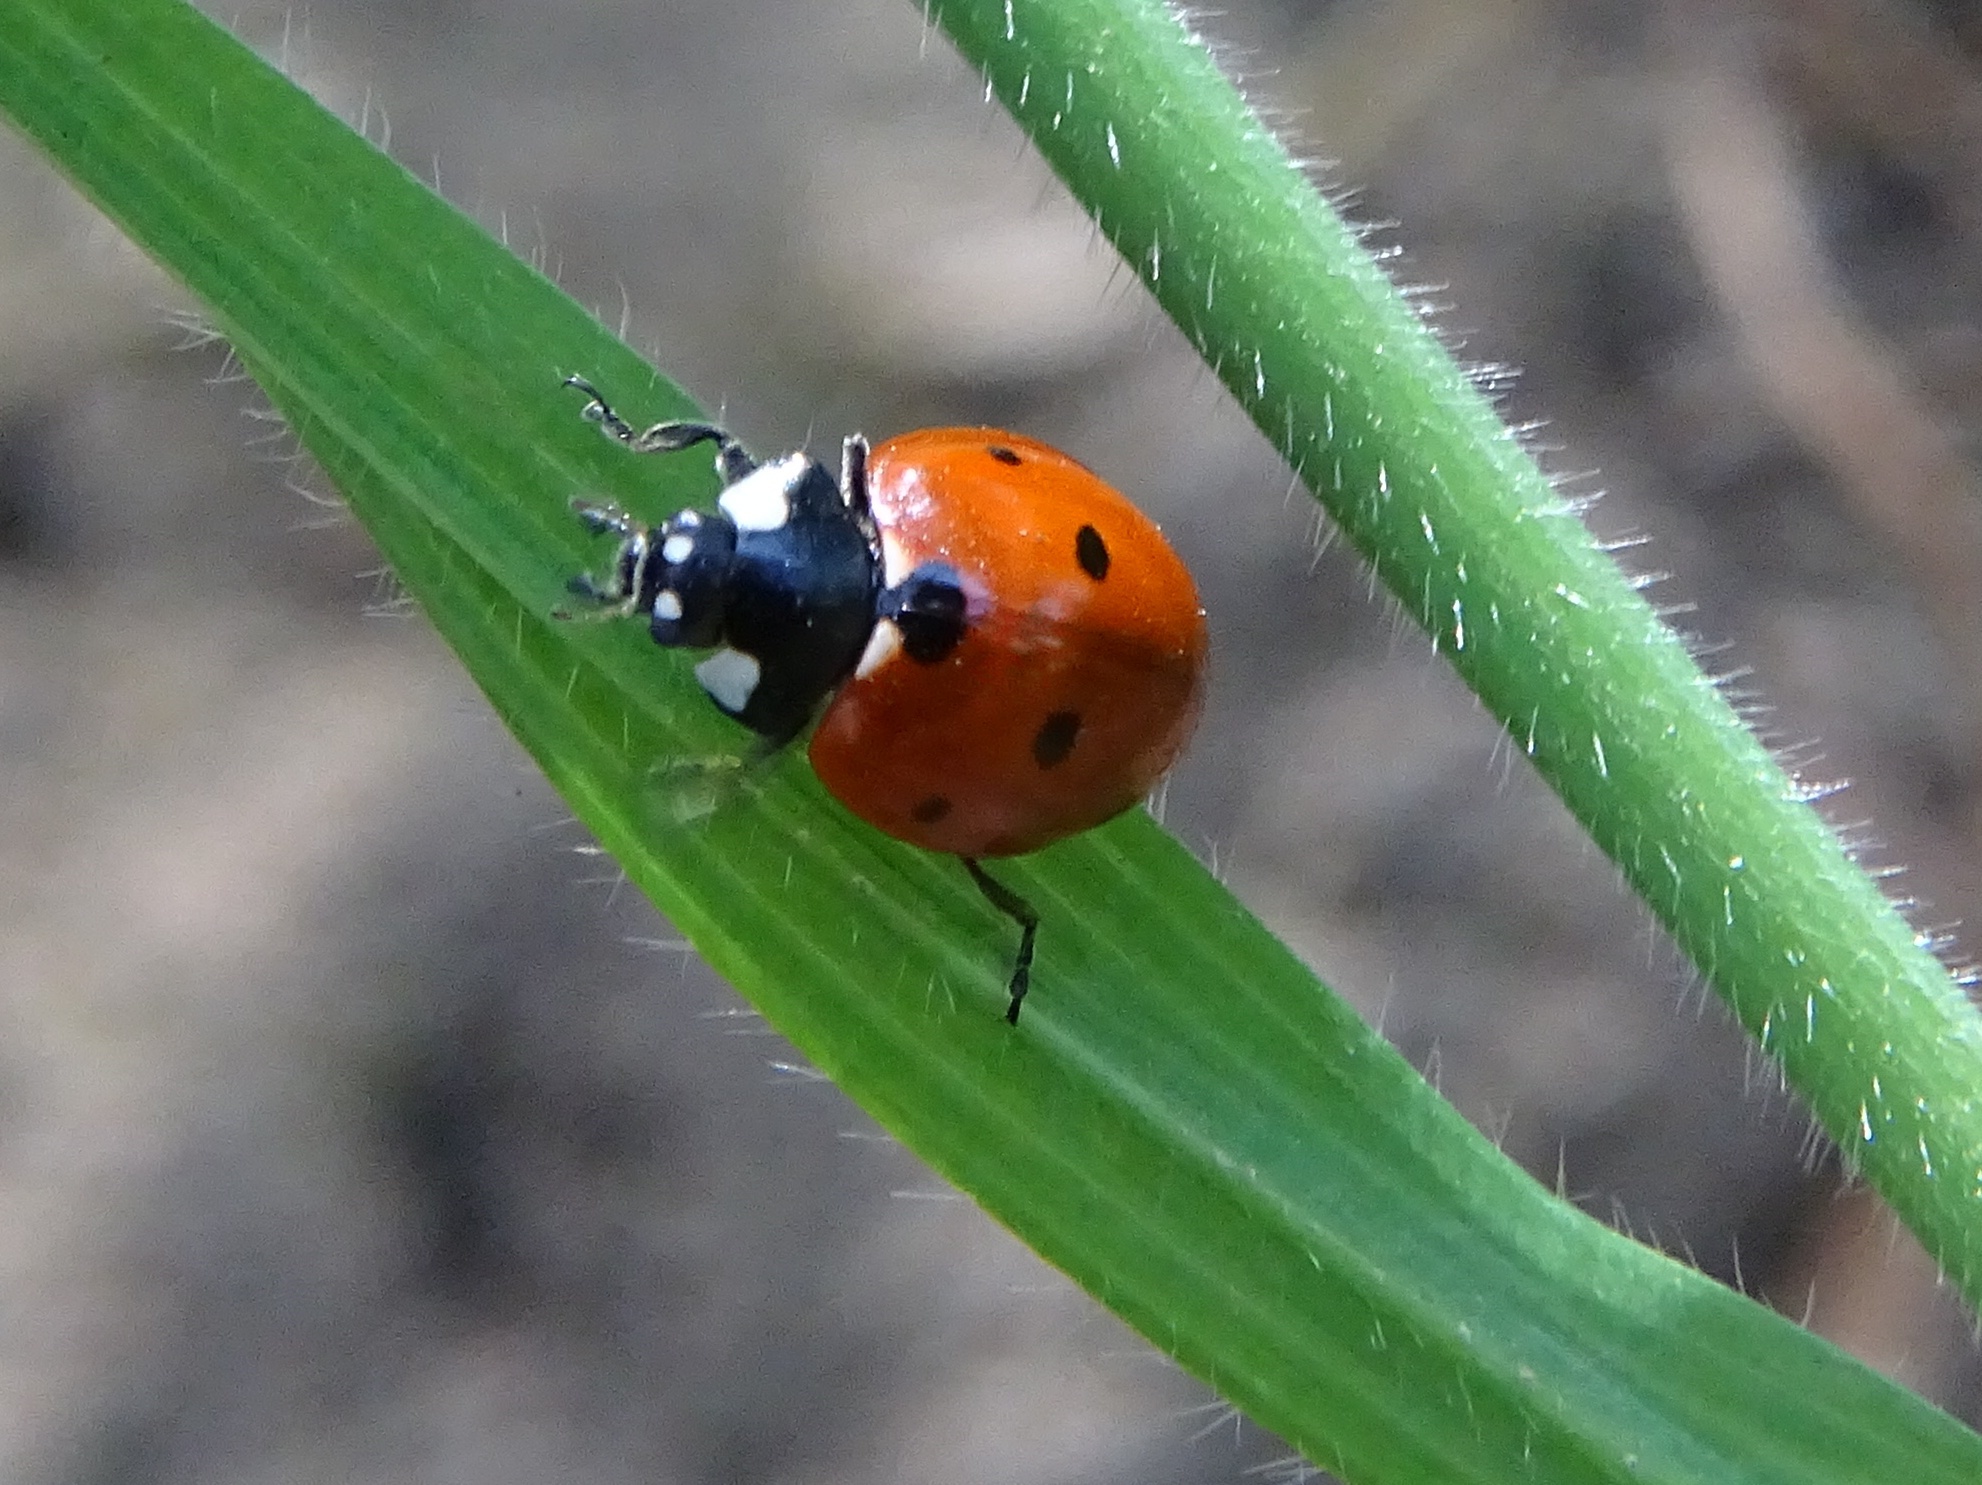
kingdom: Animalia
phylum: Arthropoda
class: Insecta
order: Coleoptera
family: Coccinellidae
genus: Coccinella
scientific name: Coccinella septempunctata
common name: Sevenspotted lady beetle
